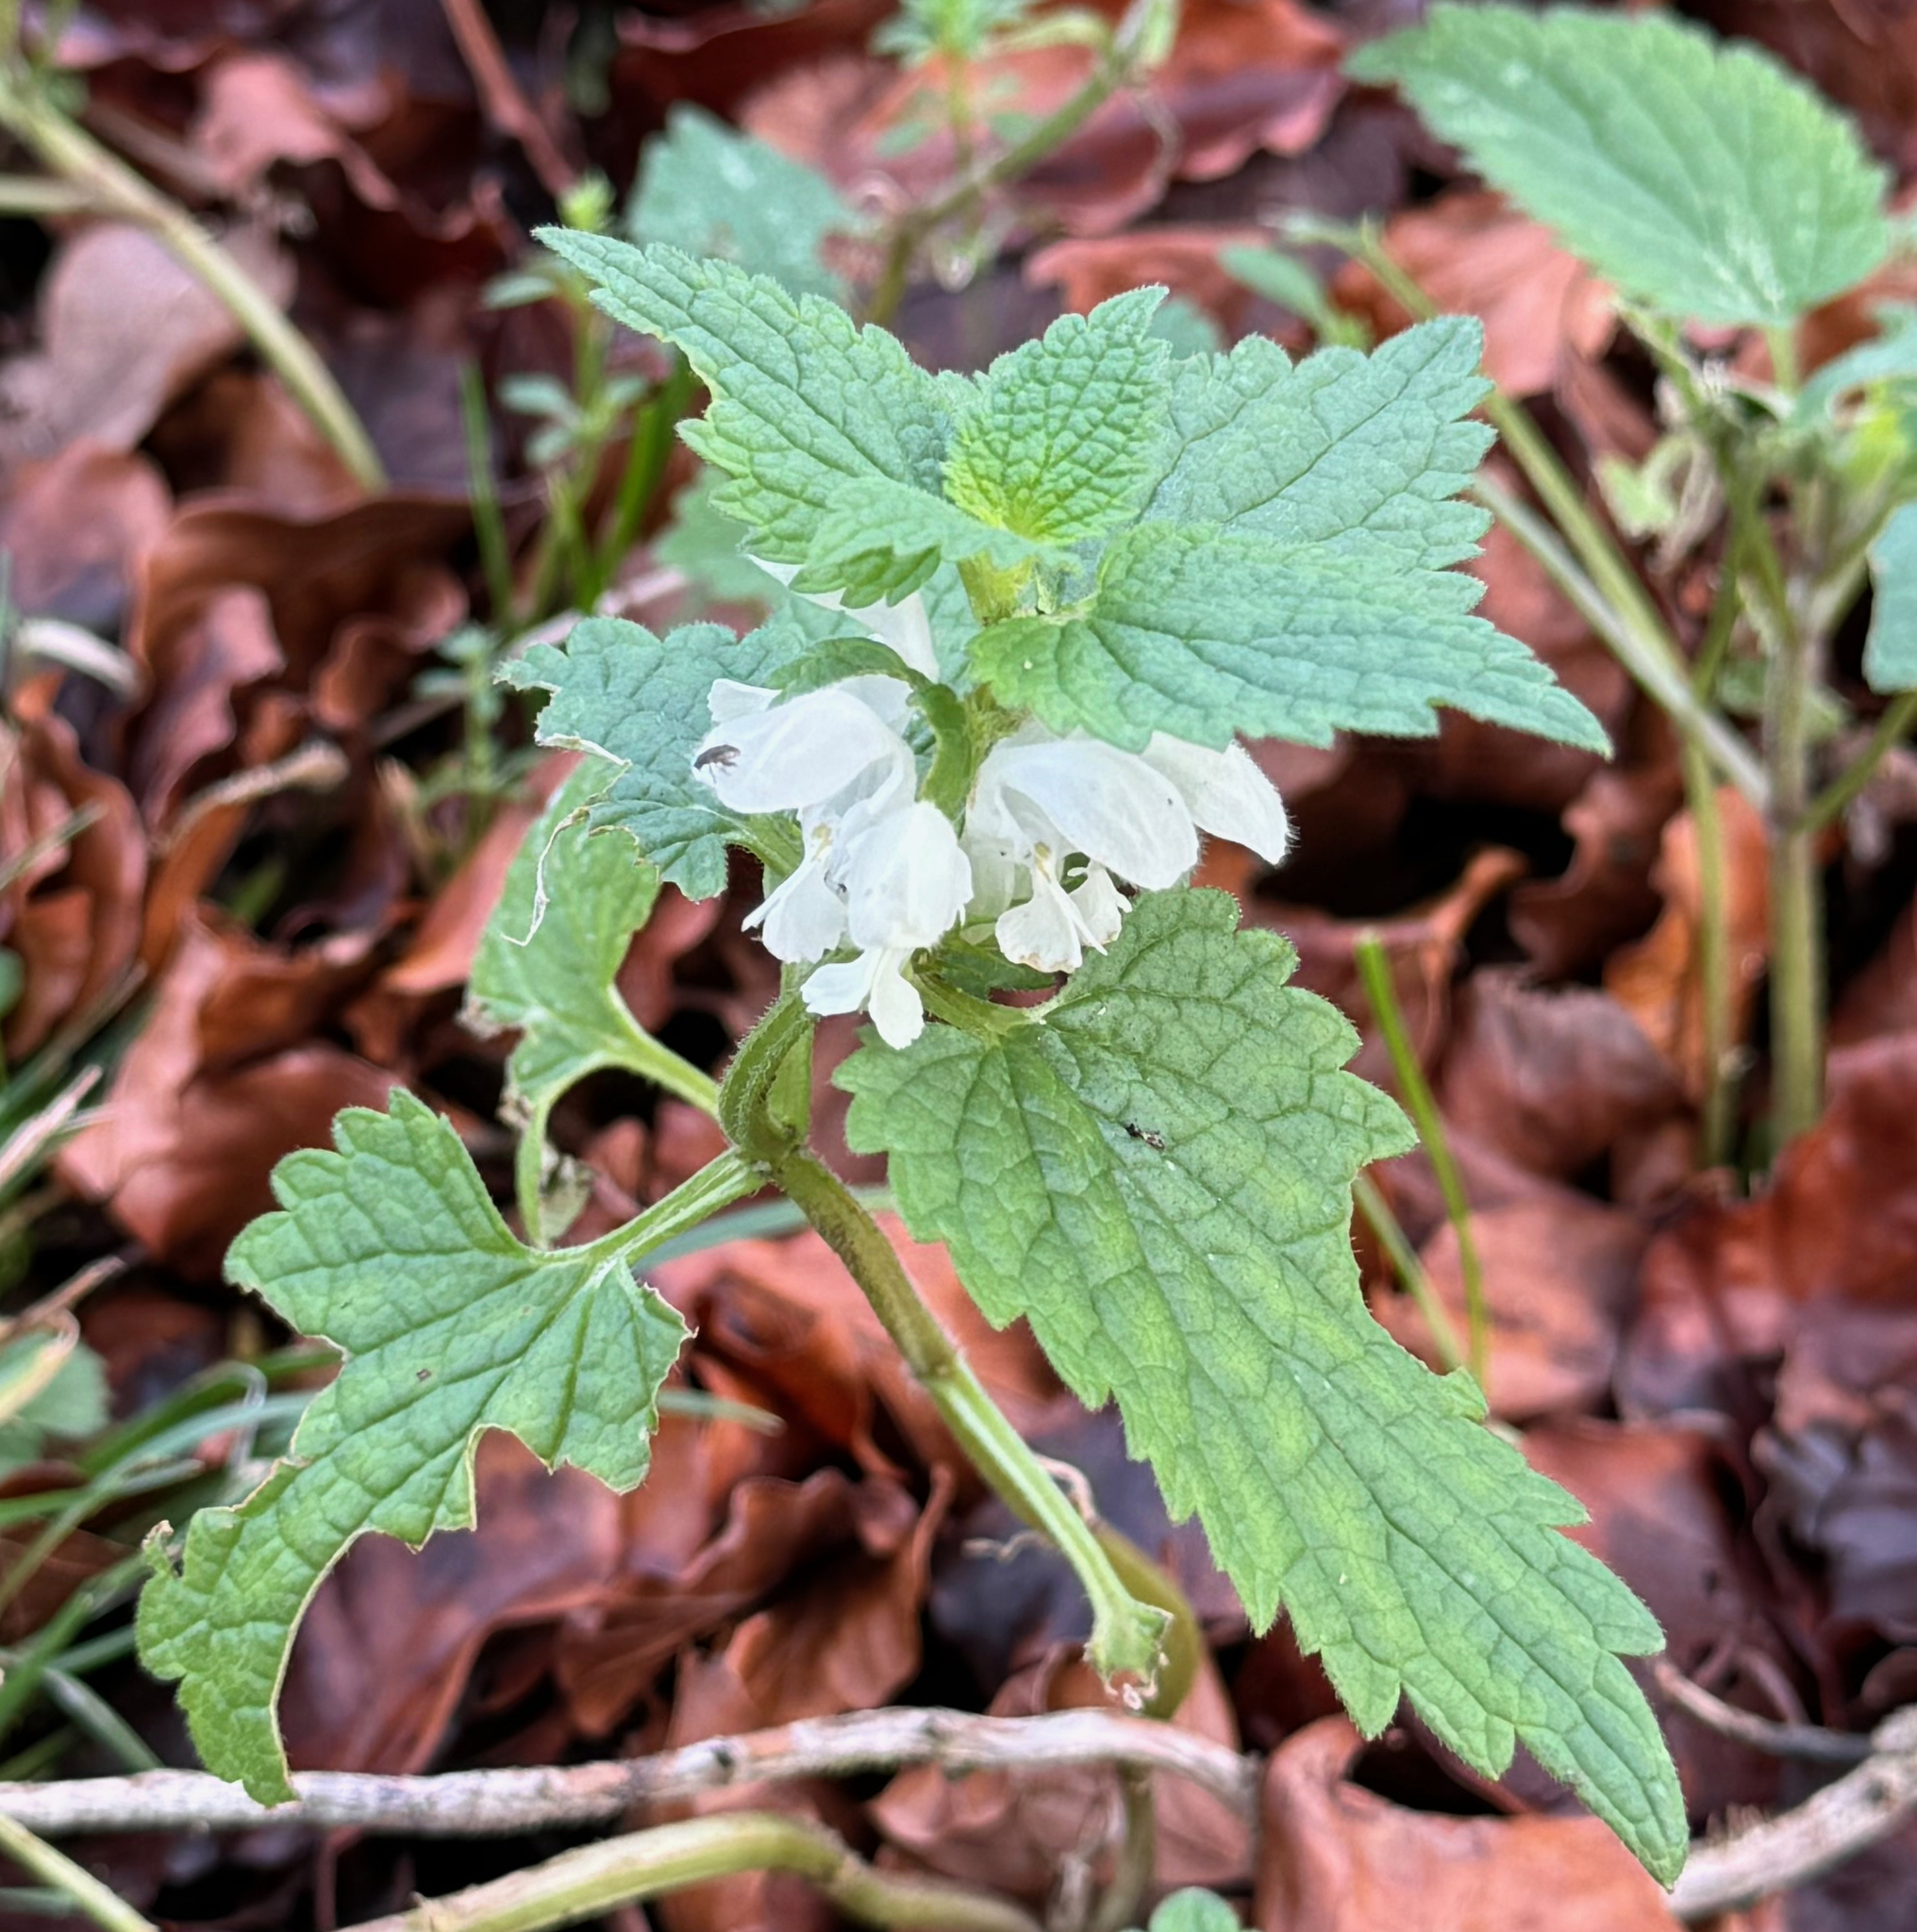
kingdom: Plantae
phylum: Tracheophyta
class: Magnoliopsida
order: Lamiales
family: Lamiaceae
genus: Lamium
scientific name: Lamium album
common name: White dead-nettle
